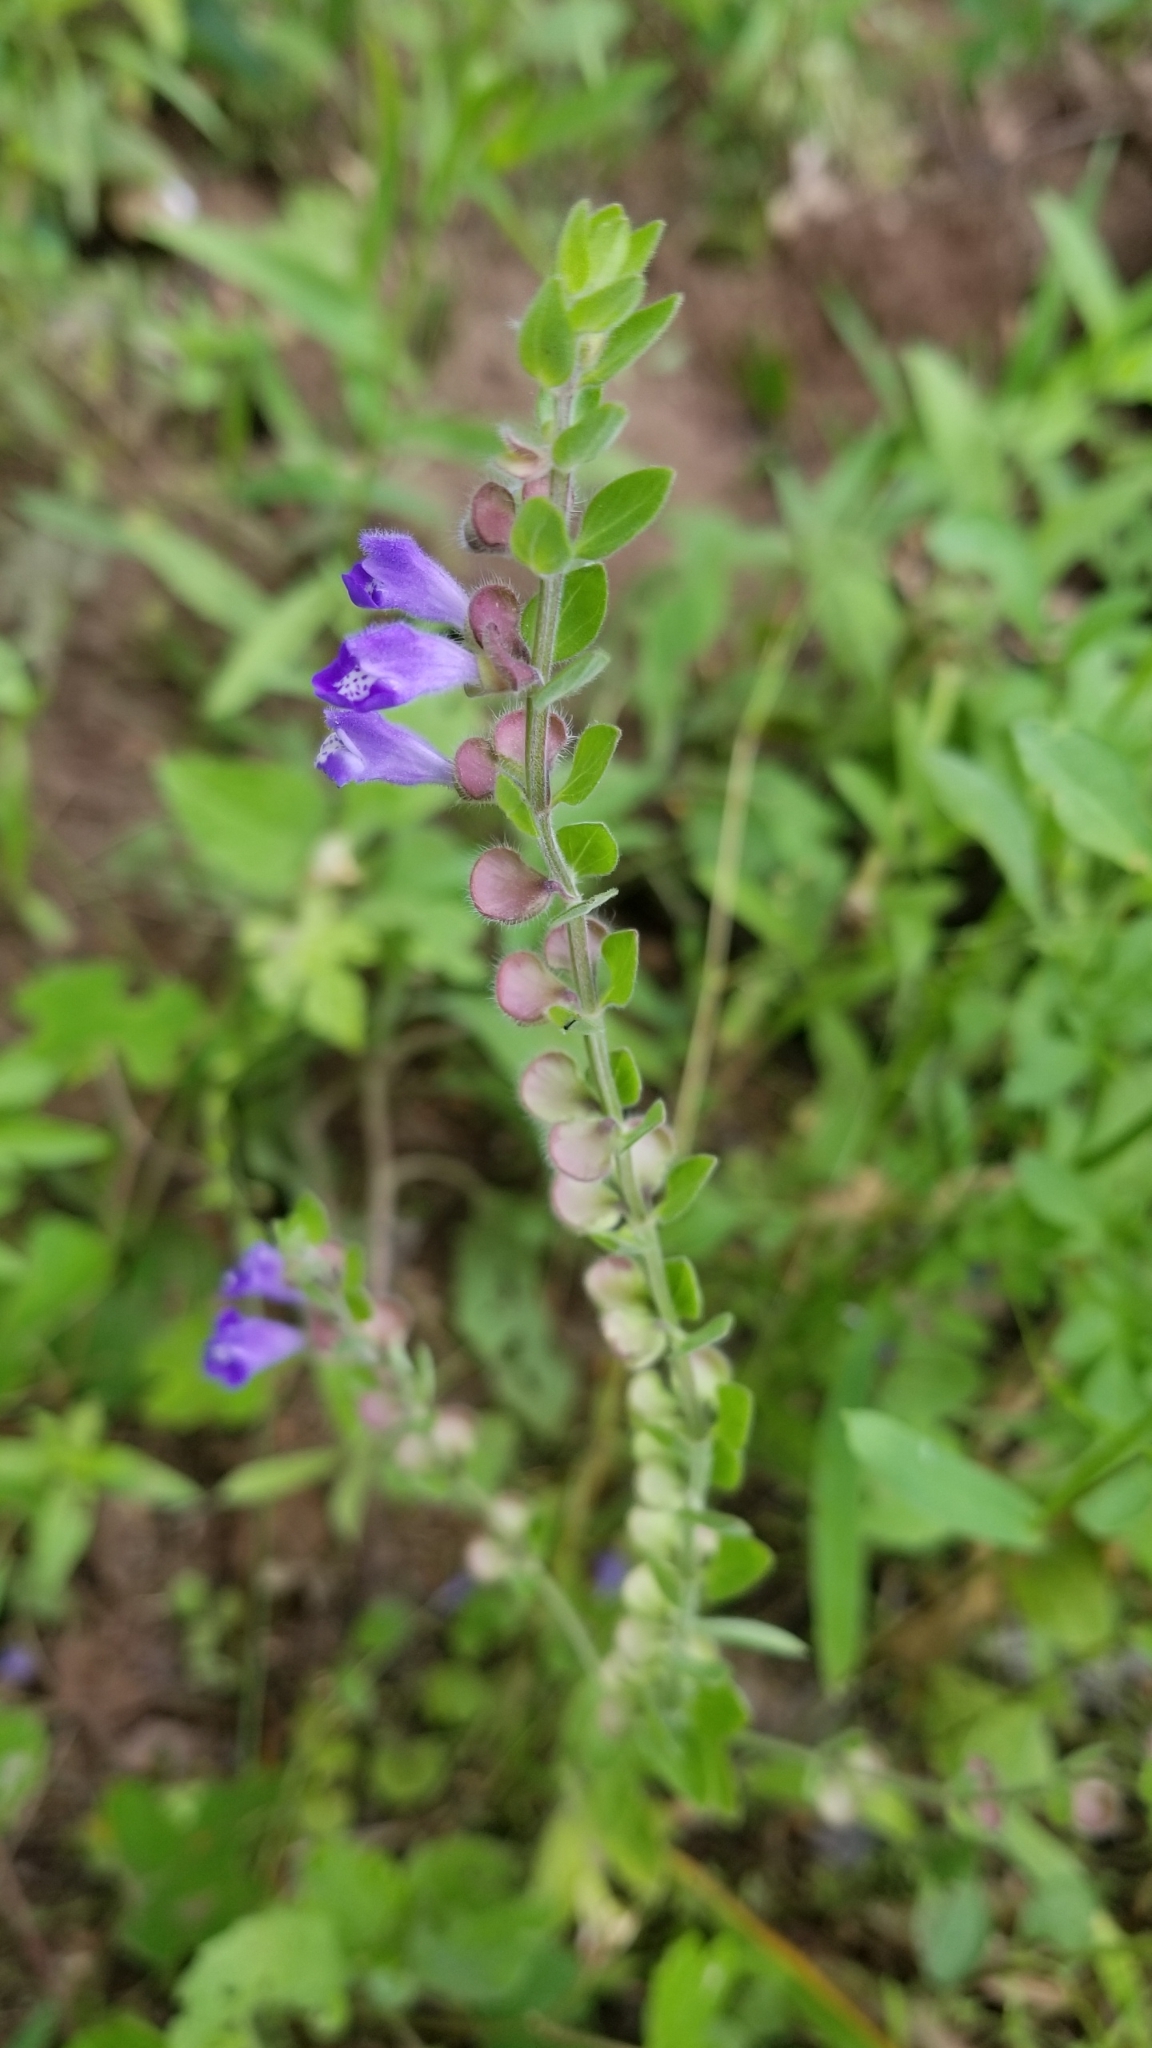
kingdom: Plantae
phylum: Tracheophyta
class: Magnoliopsida
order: Lamiales
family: Lamiaceae
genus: Scutellaria
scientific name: Scutellaria drummondii
